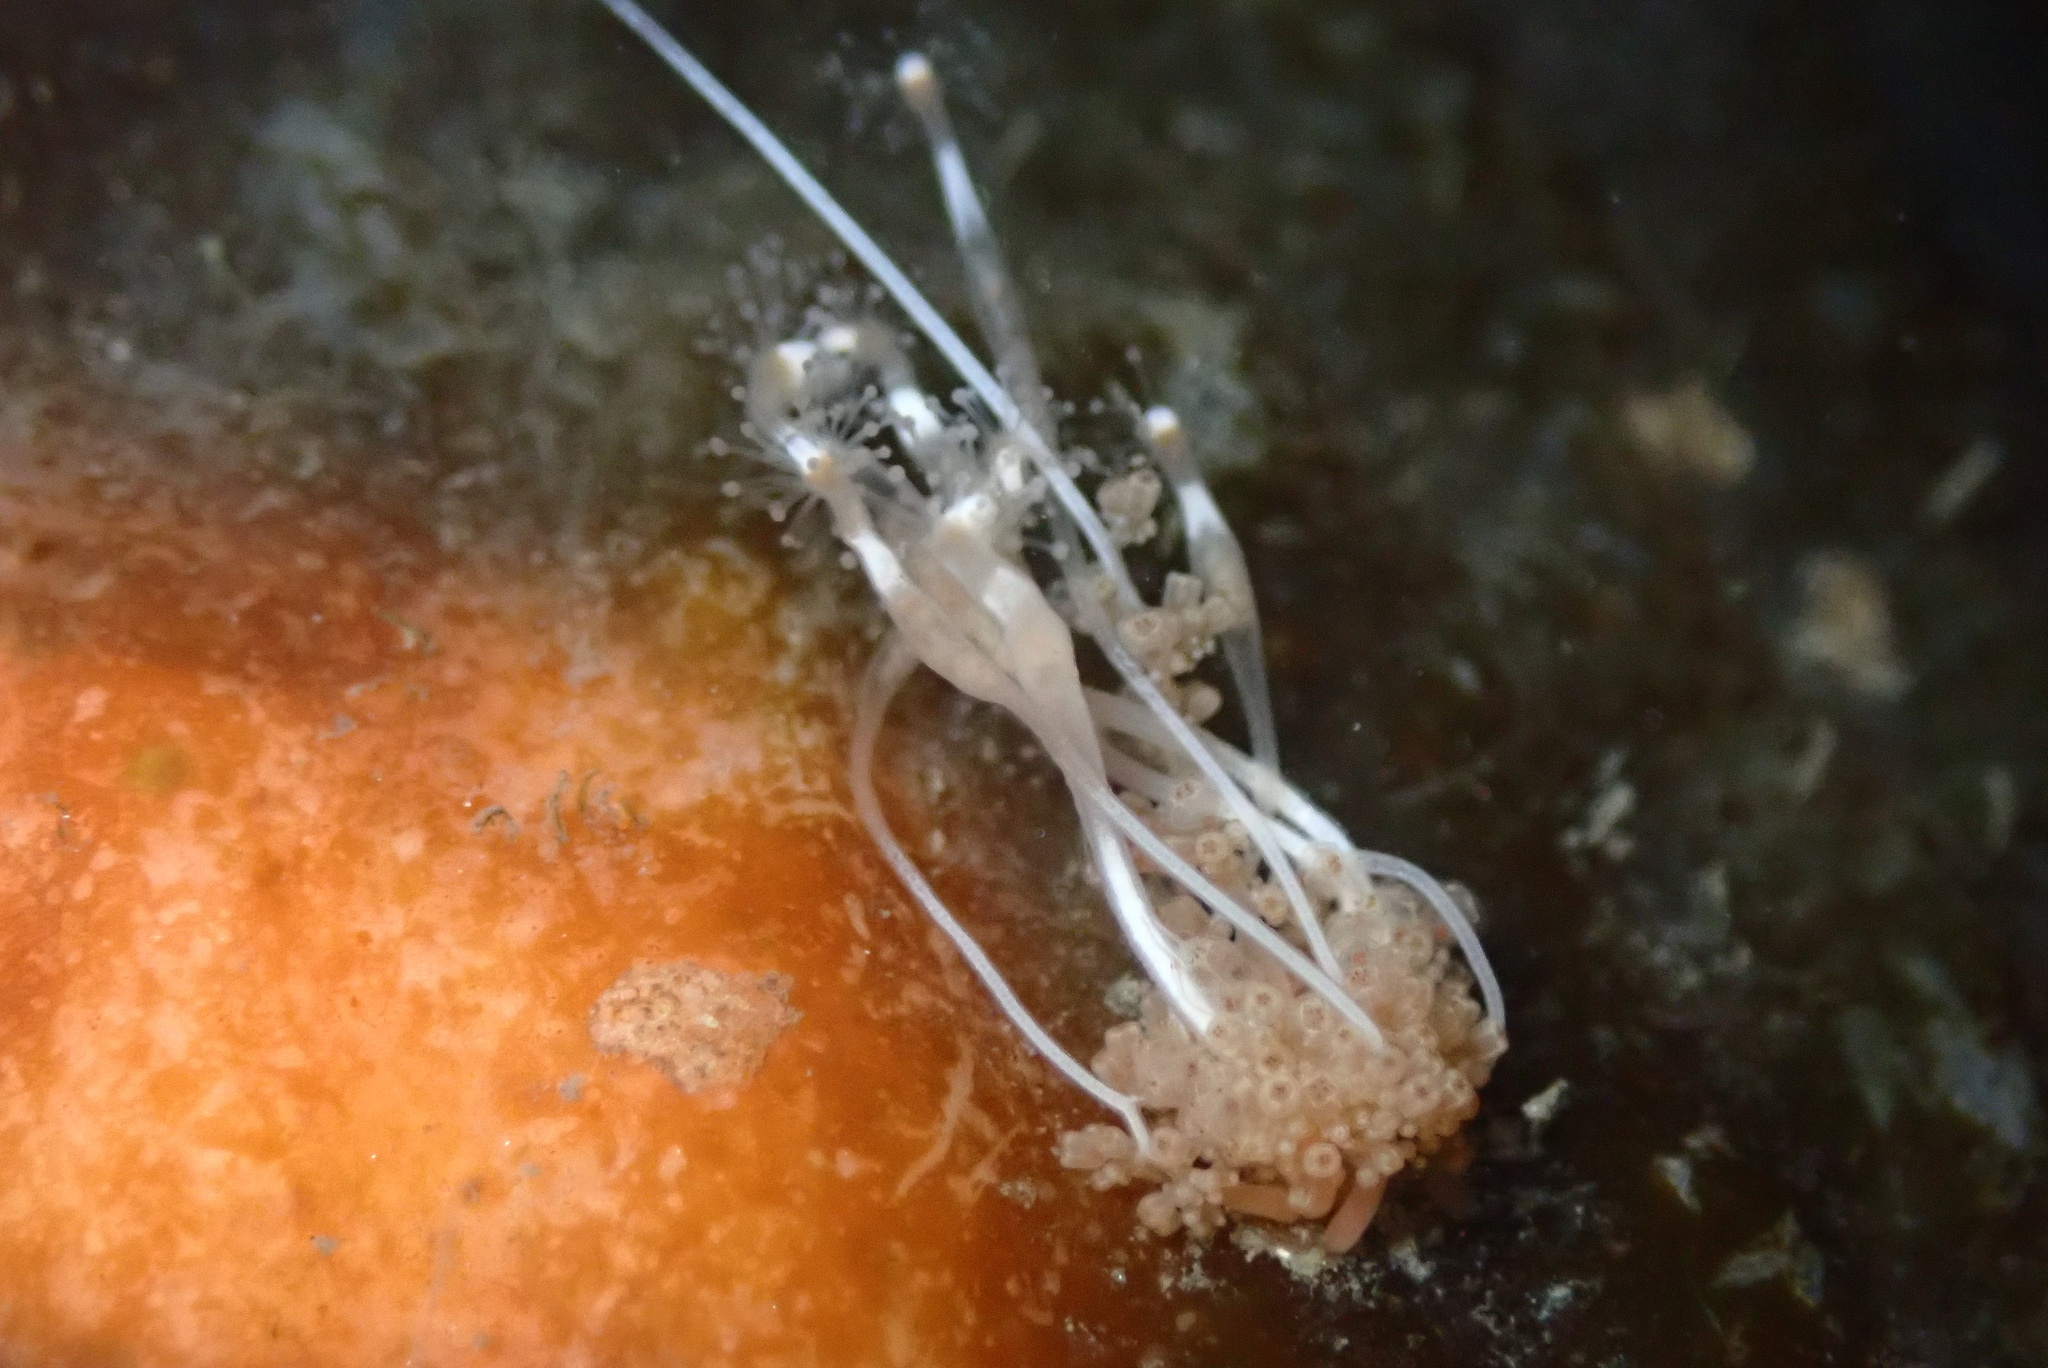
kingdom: Animalia
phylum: Cnidaria
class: Hydrozoa
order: Anthoathecata
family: Hydrocorynidae
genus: Hydrocoryne
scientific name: Hydrocoryne bodegensis
